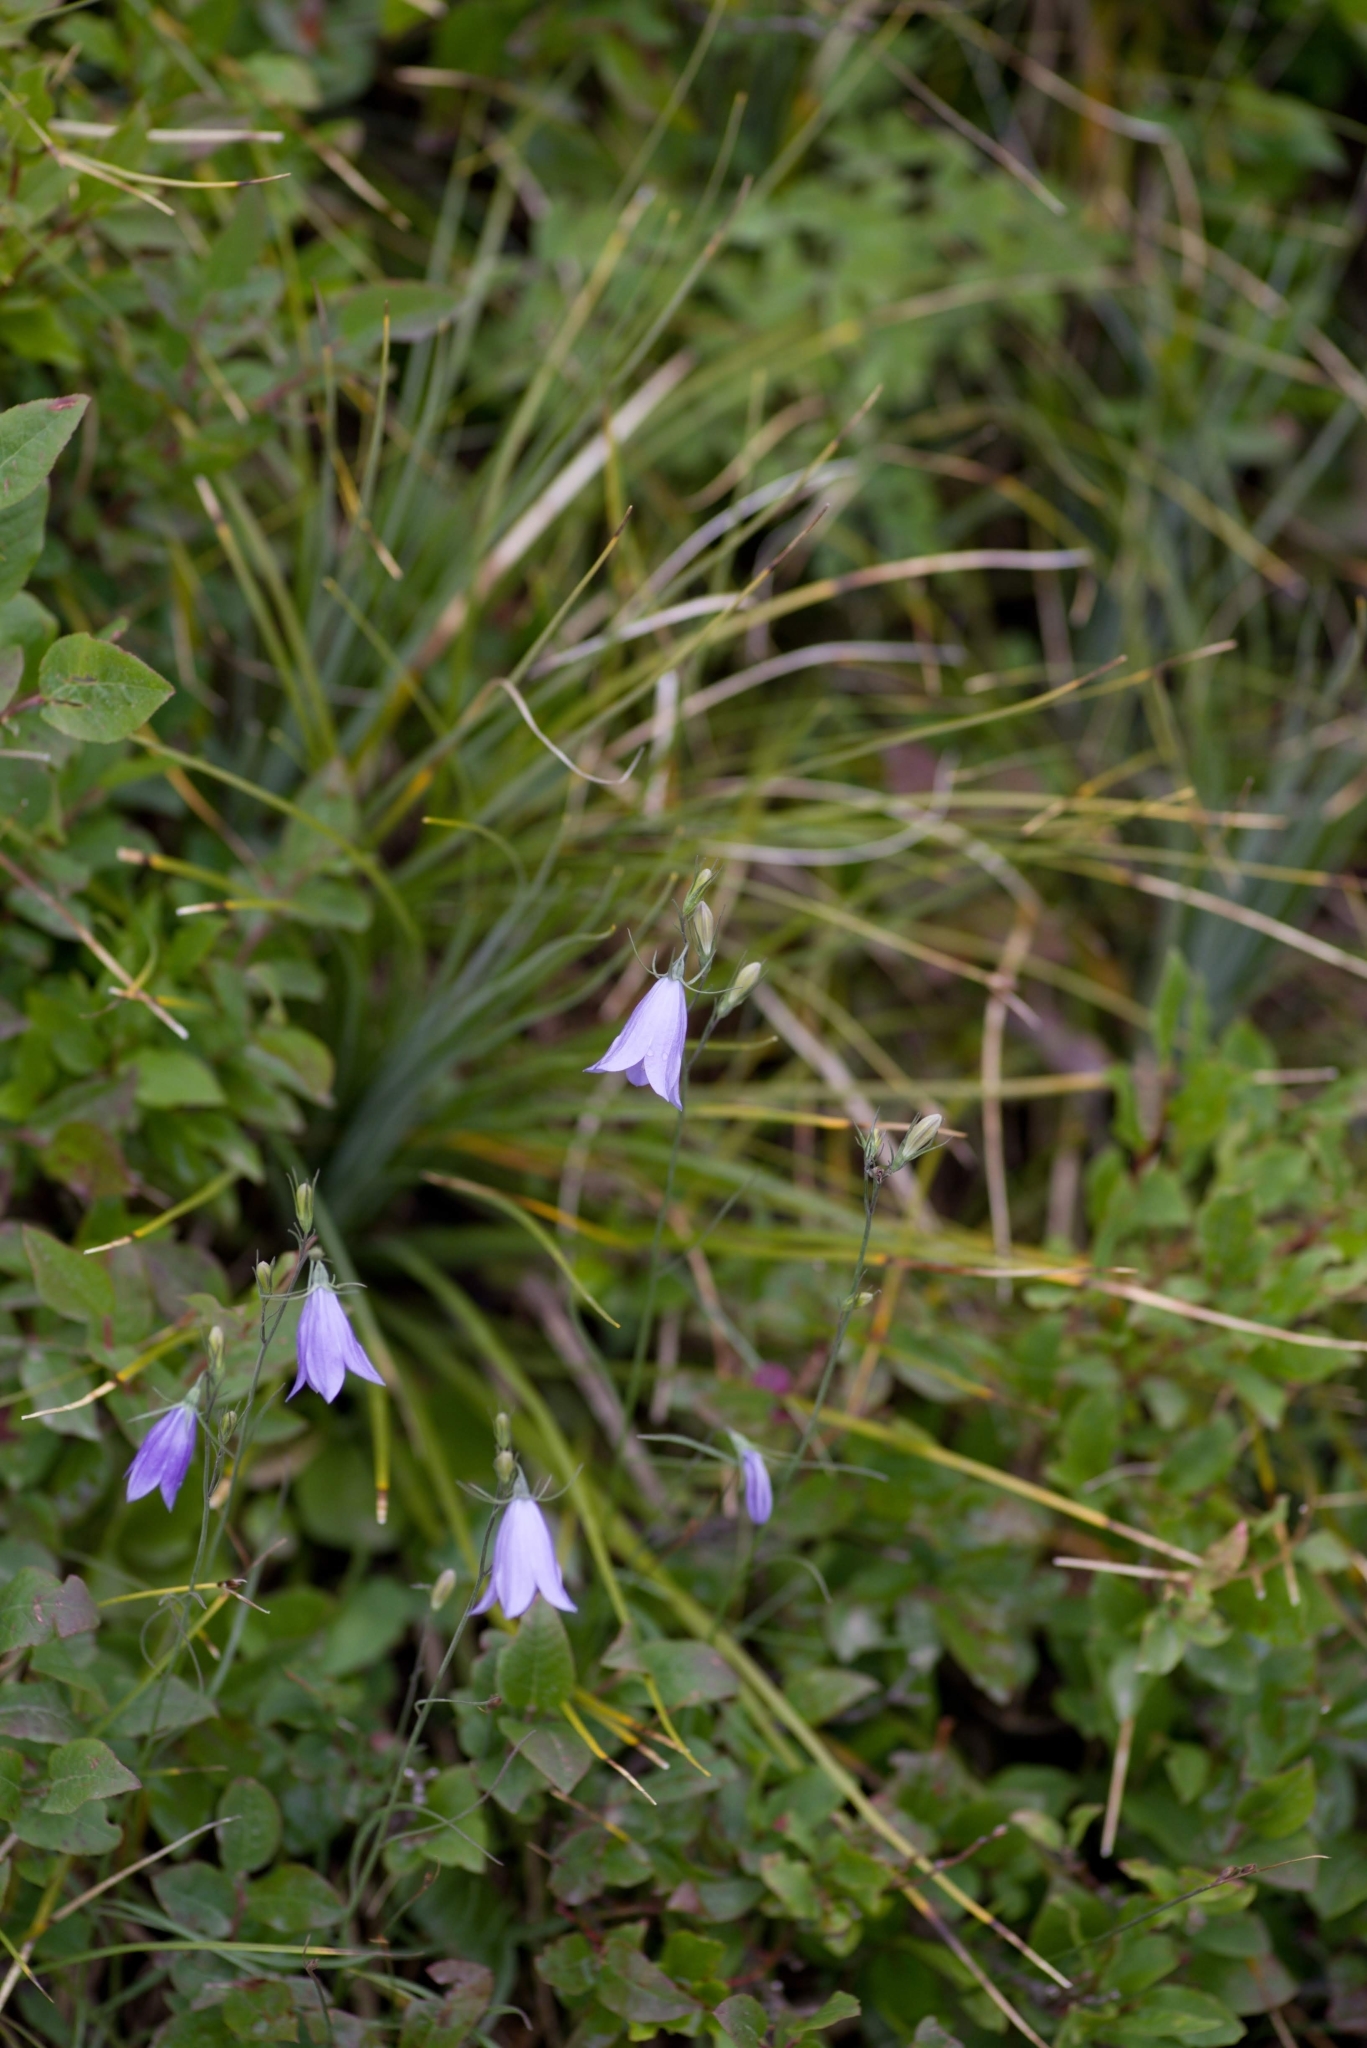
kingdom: Plantae
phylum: Tracheophyta
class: Magnoliopsida
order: Asterales
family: Campanulaceae
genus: Campanula
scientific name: Campanula petiolata
